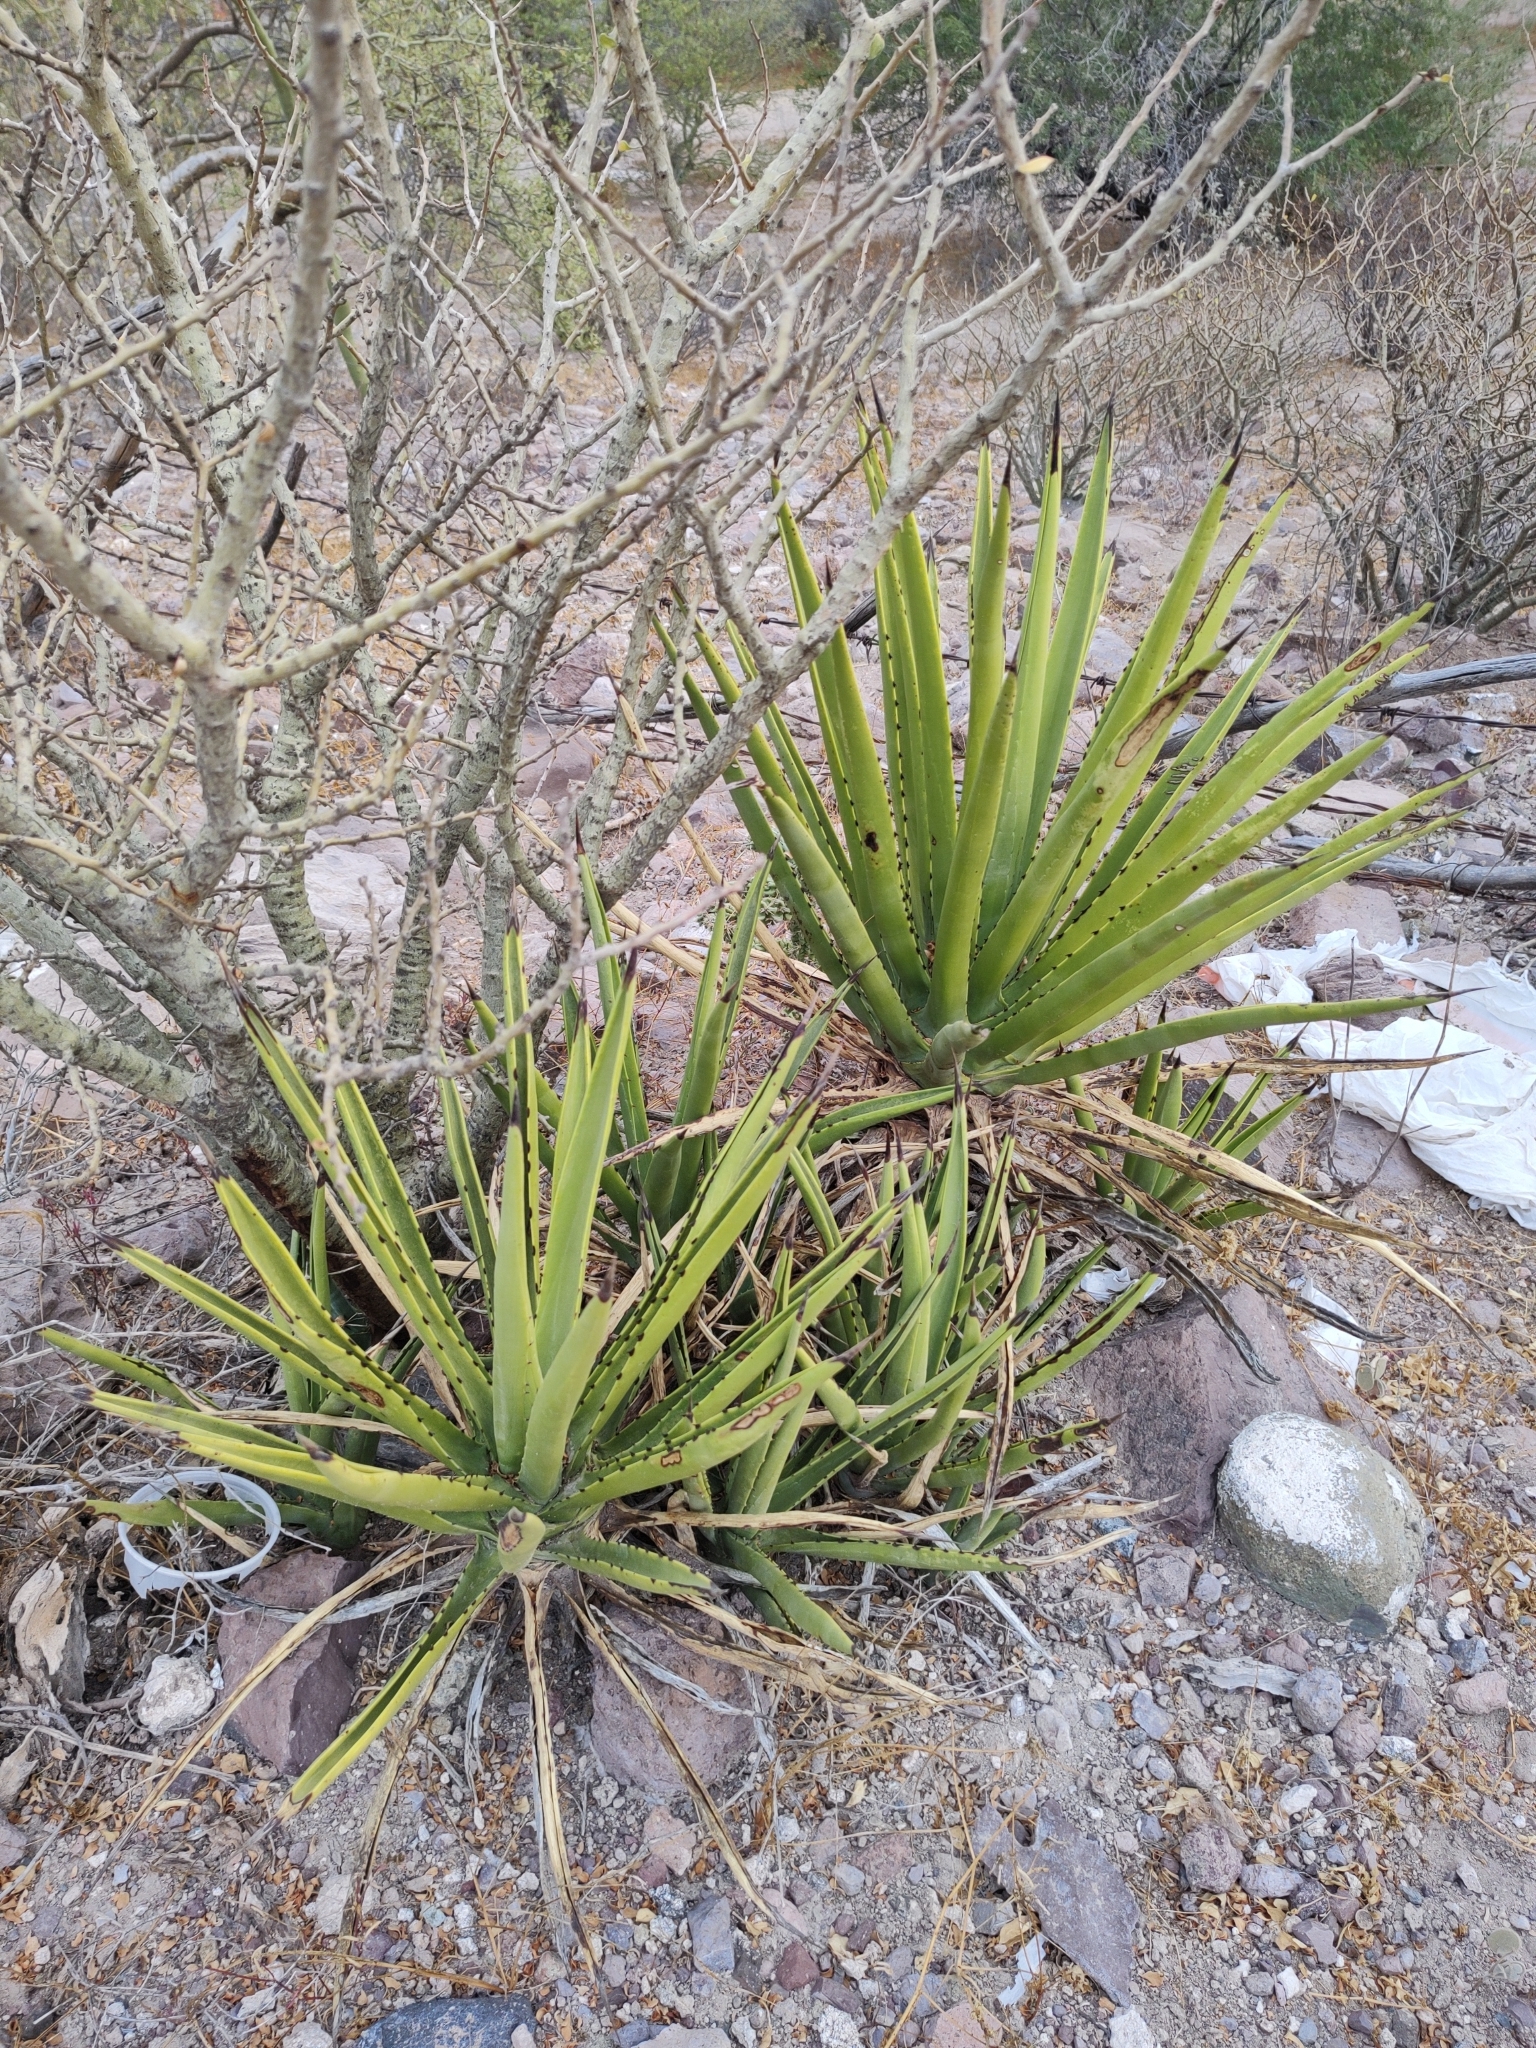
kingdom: Plantae
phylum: Tracheophyta
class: Liliopsida
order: Asparagales
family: Asparagaceae
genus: Agave
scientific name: Agave datylio
